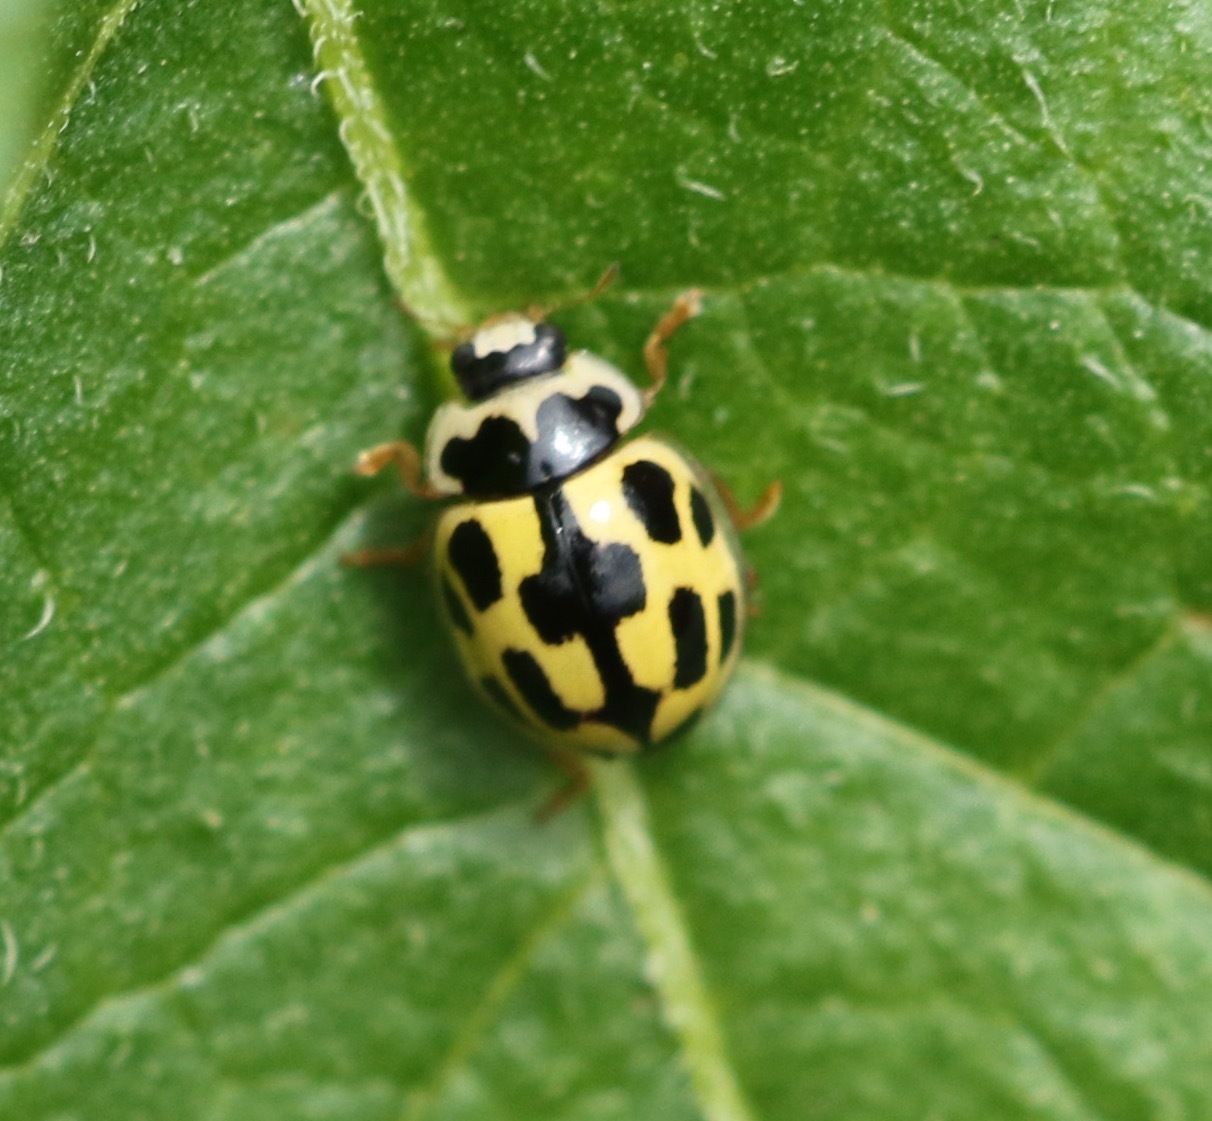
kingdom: Animalia
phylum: Arthropoda
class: Insecta
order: Coleoptera
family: Coccinellidae
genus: Propylaea
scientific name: Propylaea quatuordecimpunctata
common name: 14-spotted ladybird beetle
